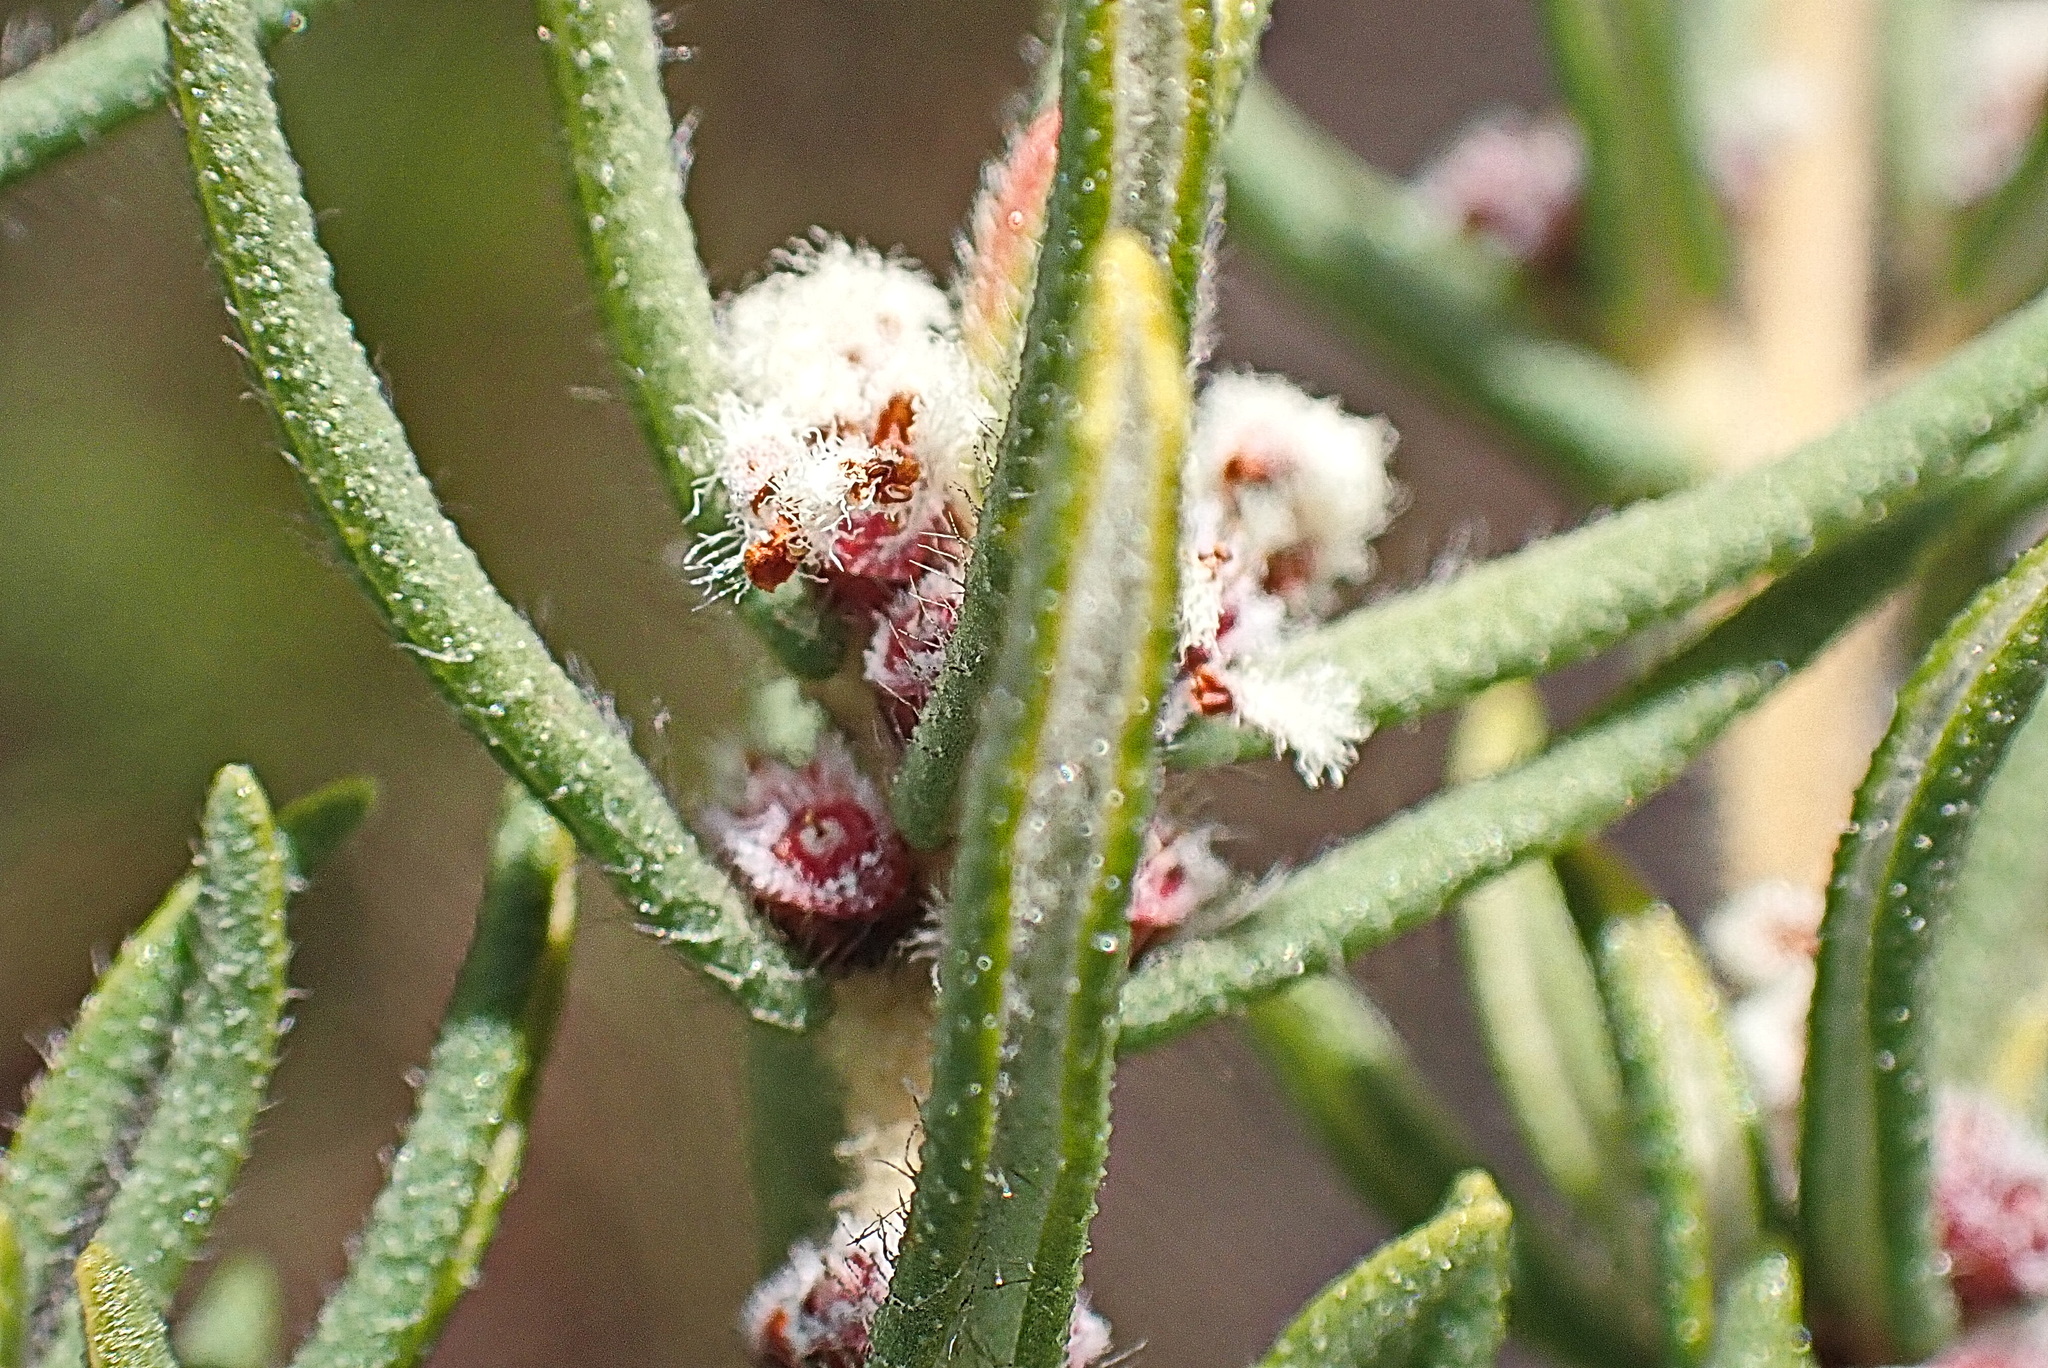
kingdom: Plantae
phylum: Tracheophyta
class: Magnoliopsida
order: Cornales
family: Grubbiaceae
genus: Grubbia
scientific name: Grubbia rosmarinifolia
